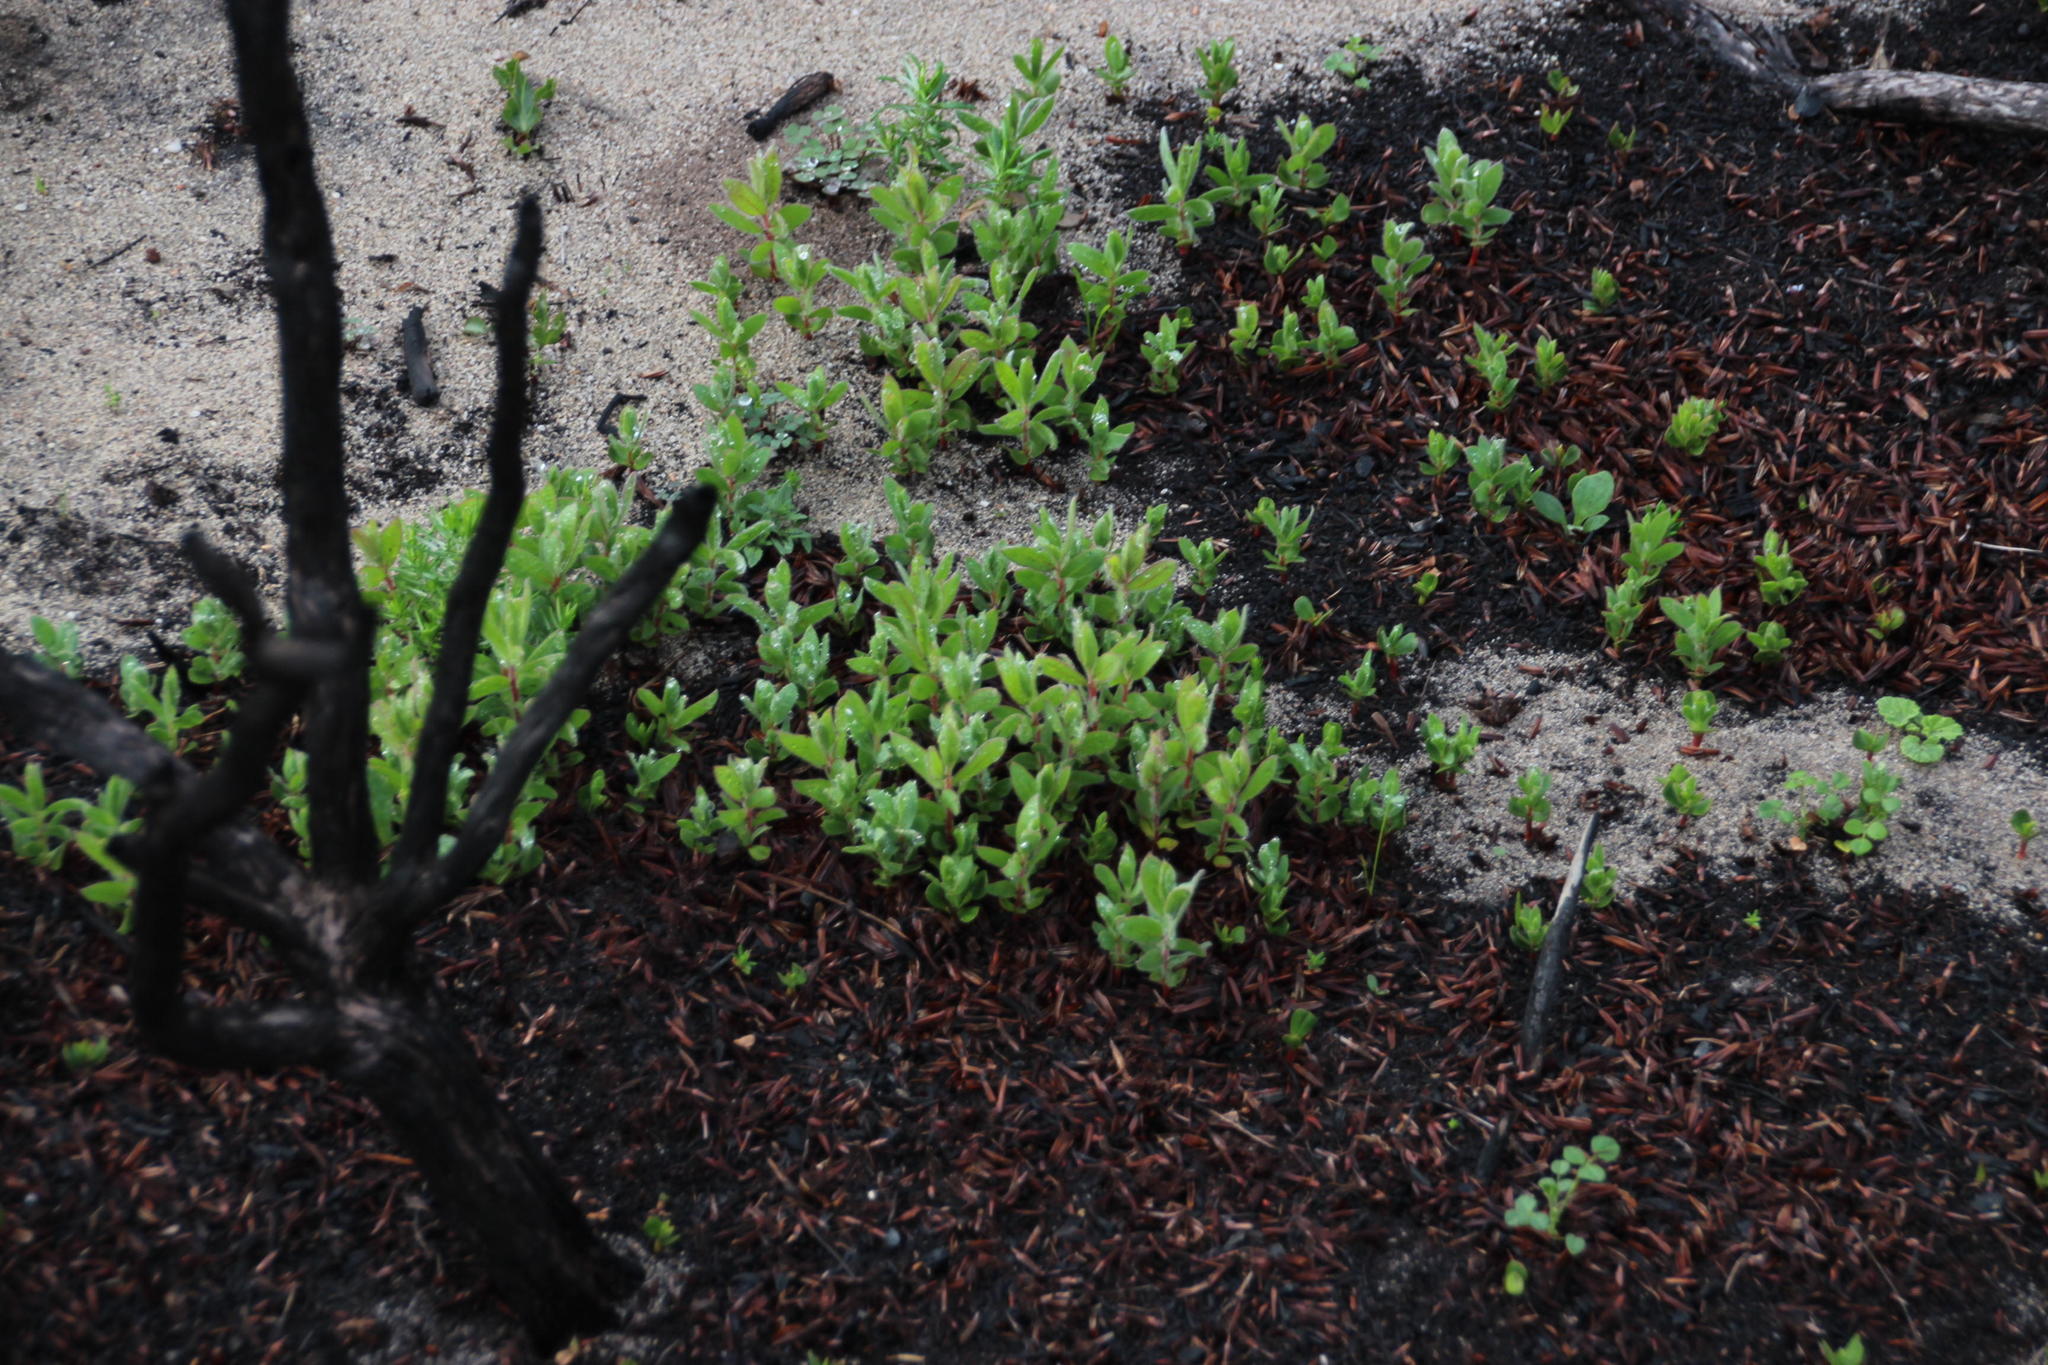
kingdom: Plantae
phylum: Tracheophyta
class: Magnoliopsida
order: Proteales
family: Proteaceae
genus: Protea
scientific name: Protea lepidocarpodendron
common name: Black-bearded protea
